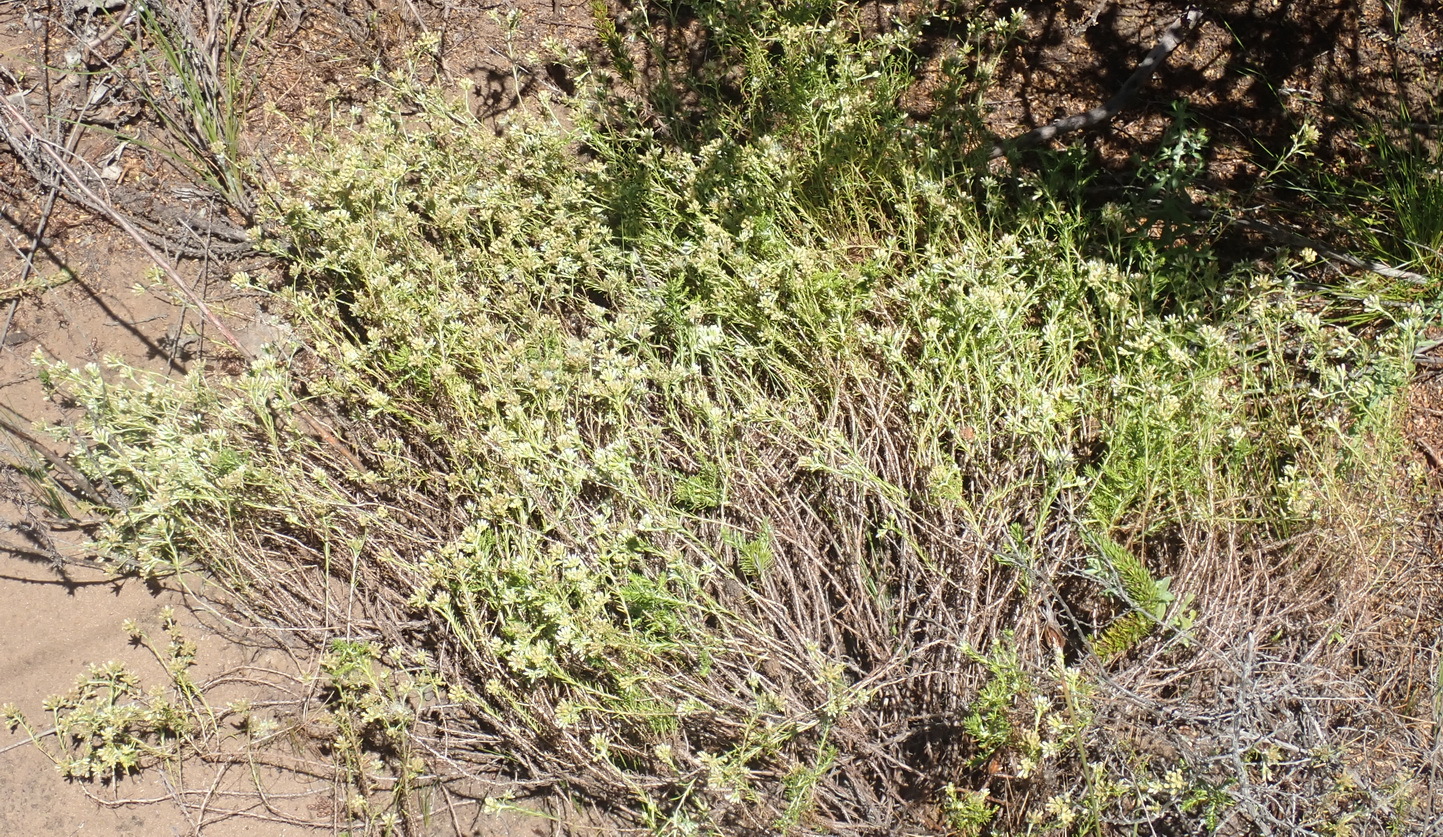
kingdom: Plantae
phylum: Tracheophyta
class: Magnoliopsida
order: Asterales
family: Asteraceae
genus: Helichrysum
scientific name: Helichrysum niveum
